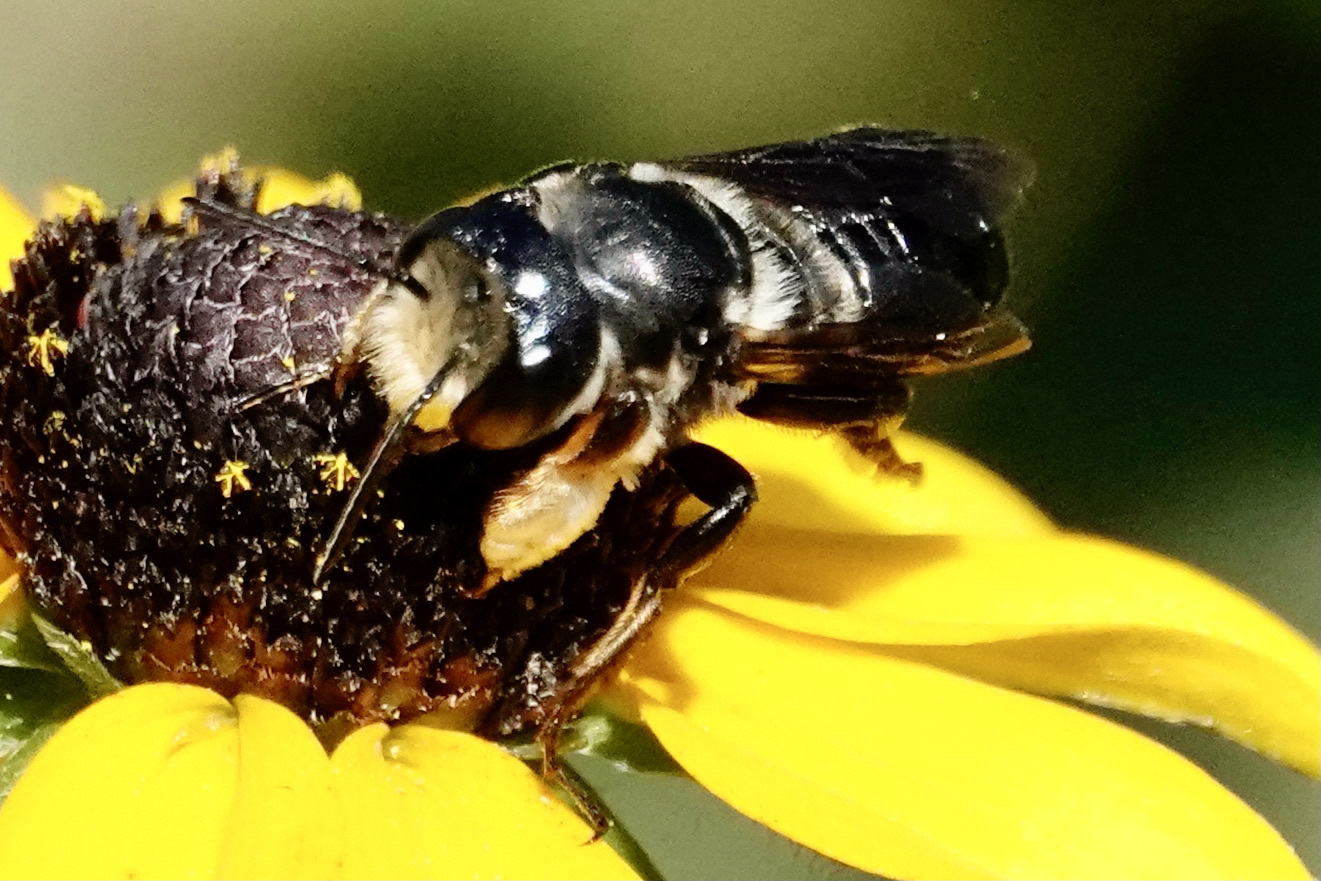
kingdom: Animalia
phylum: Arthropoda
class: Insecta
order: Hymenoptera
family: Megachilidae
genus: Megachile
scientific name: Megachile xylocopoides
